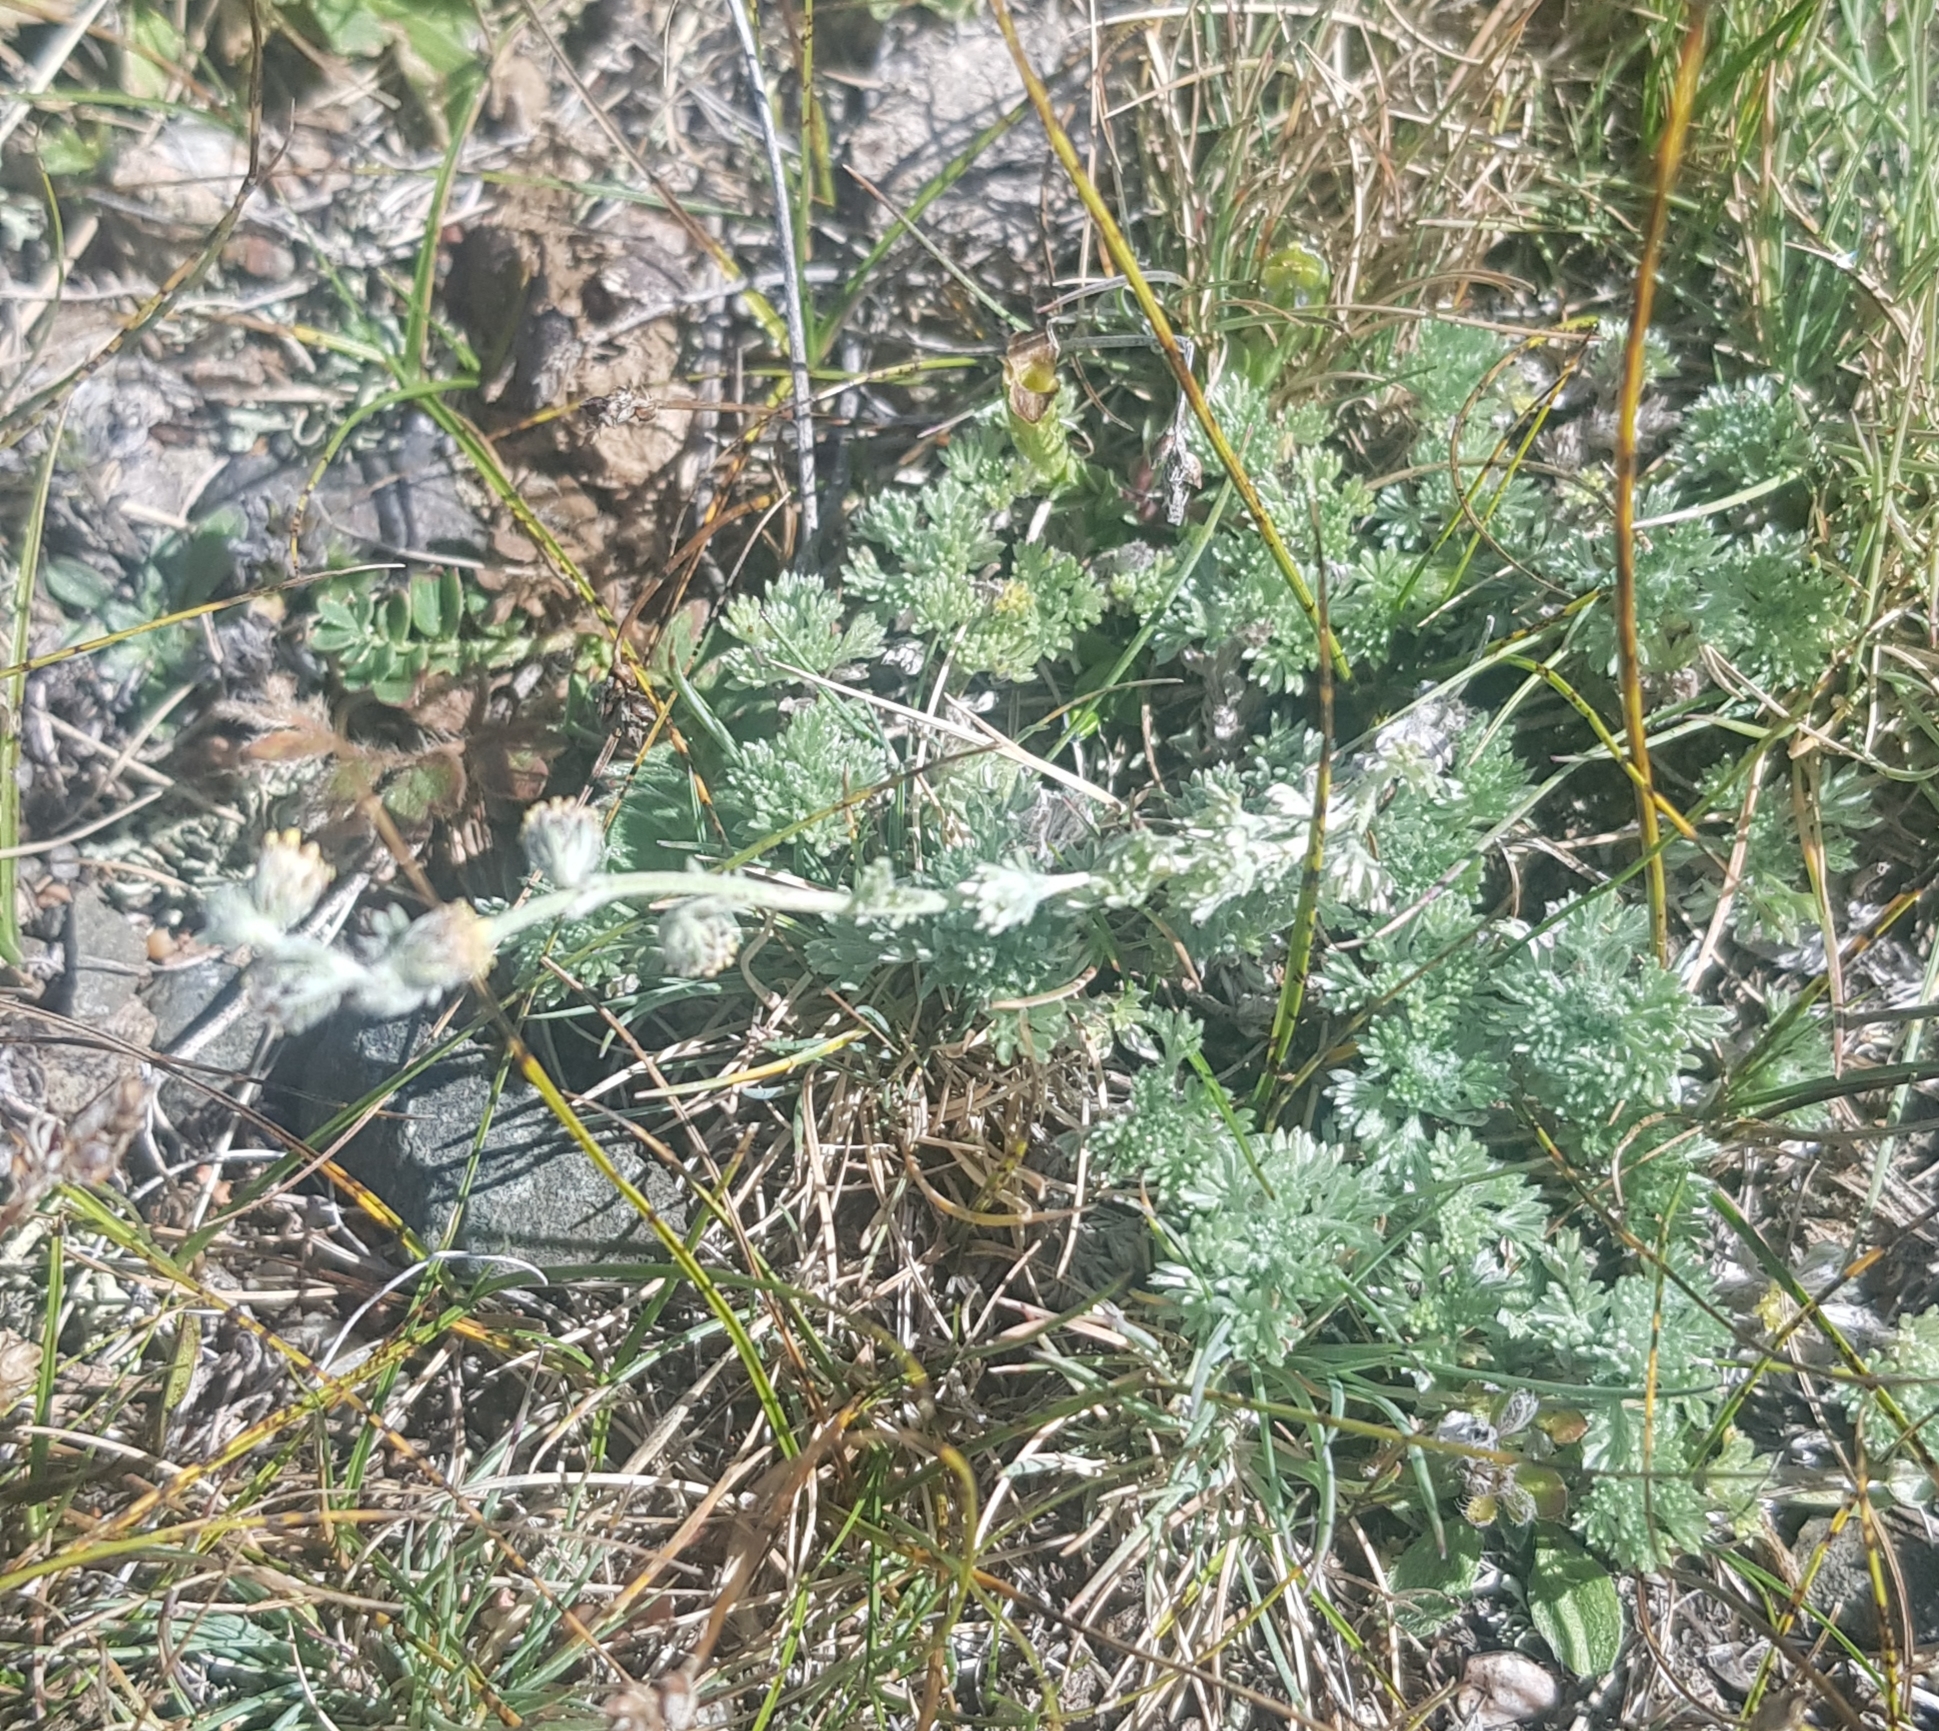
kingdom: Plantae
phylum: Tracheophyta
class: Magnoliopsida
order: Asterales
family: Asteraceae
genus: Artemisia
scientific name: Artemisia frigida
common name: Prairie sagewort
